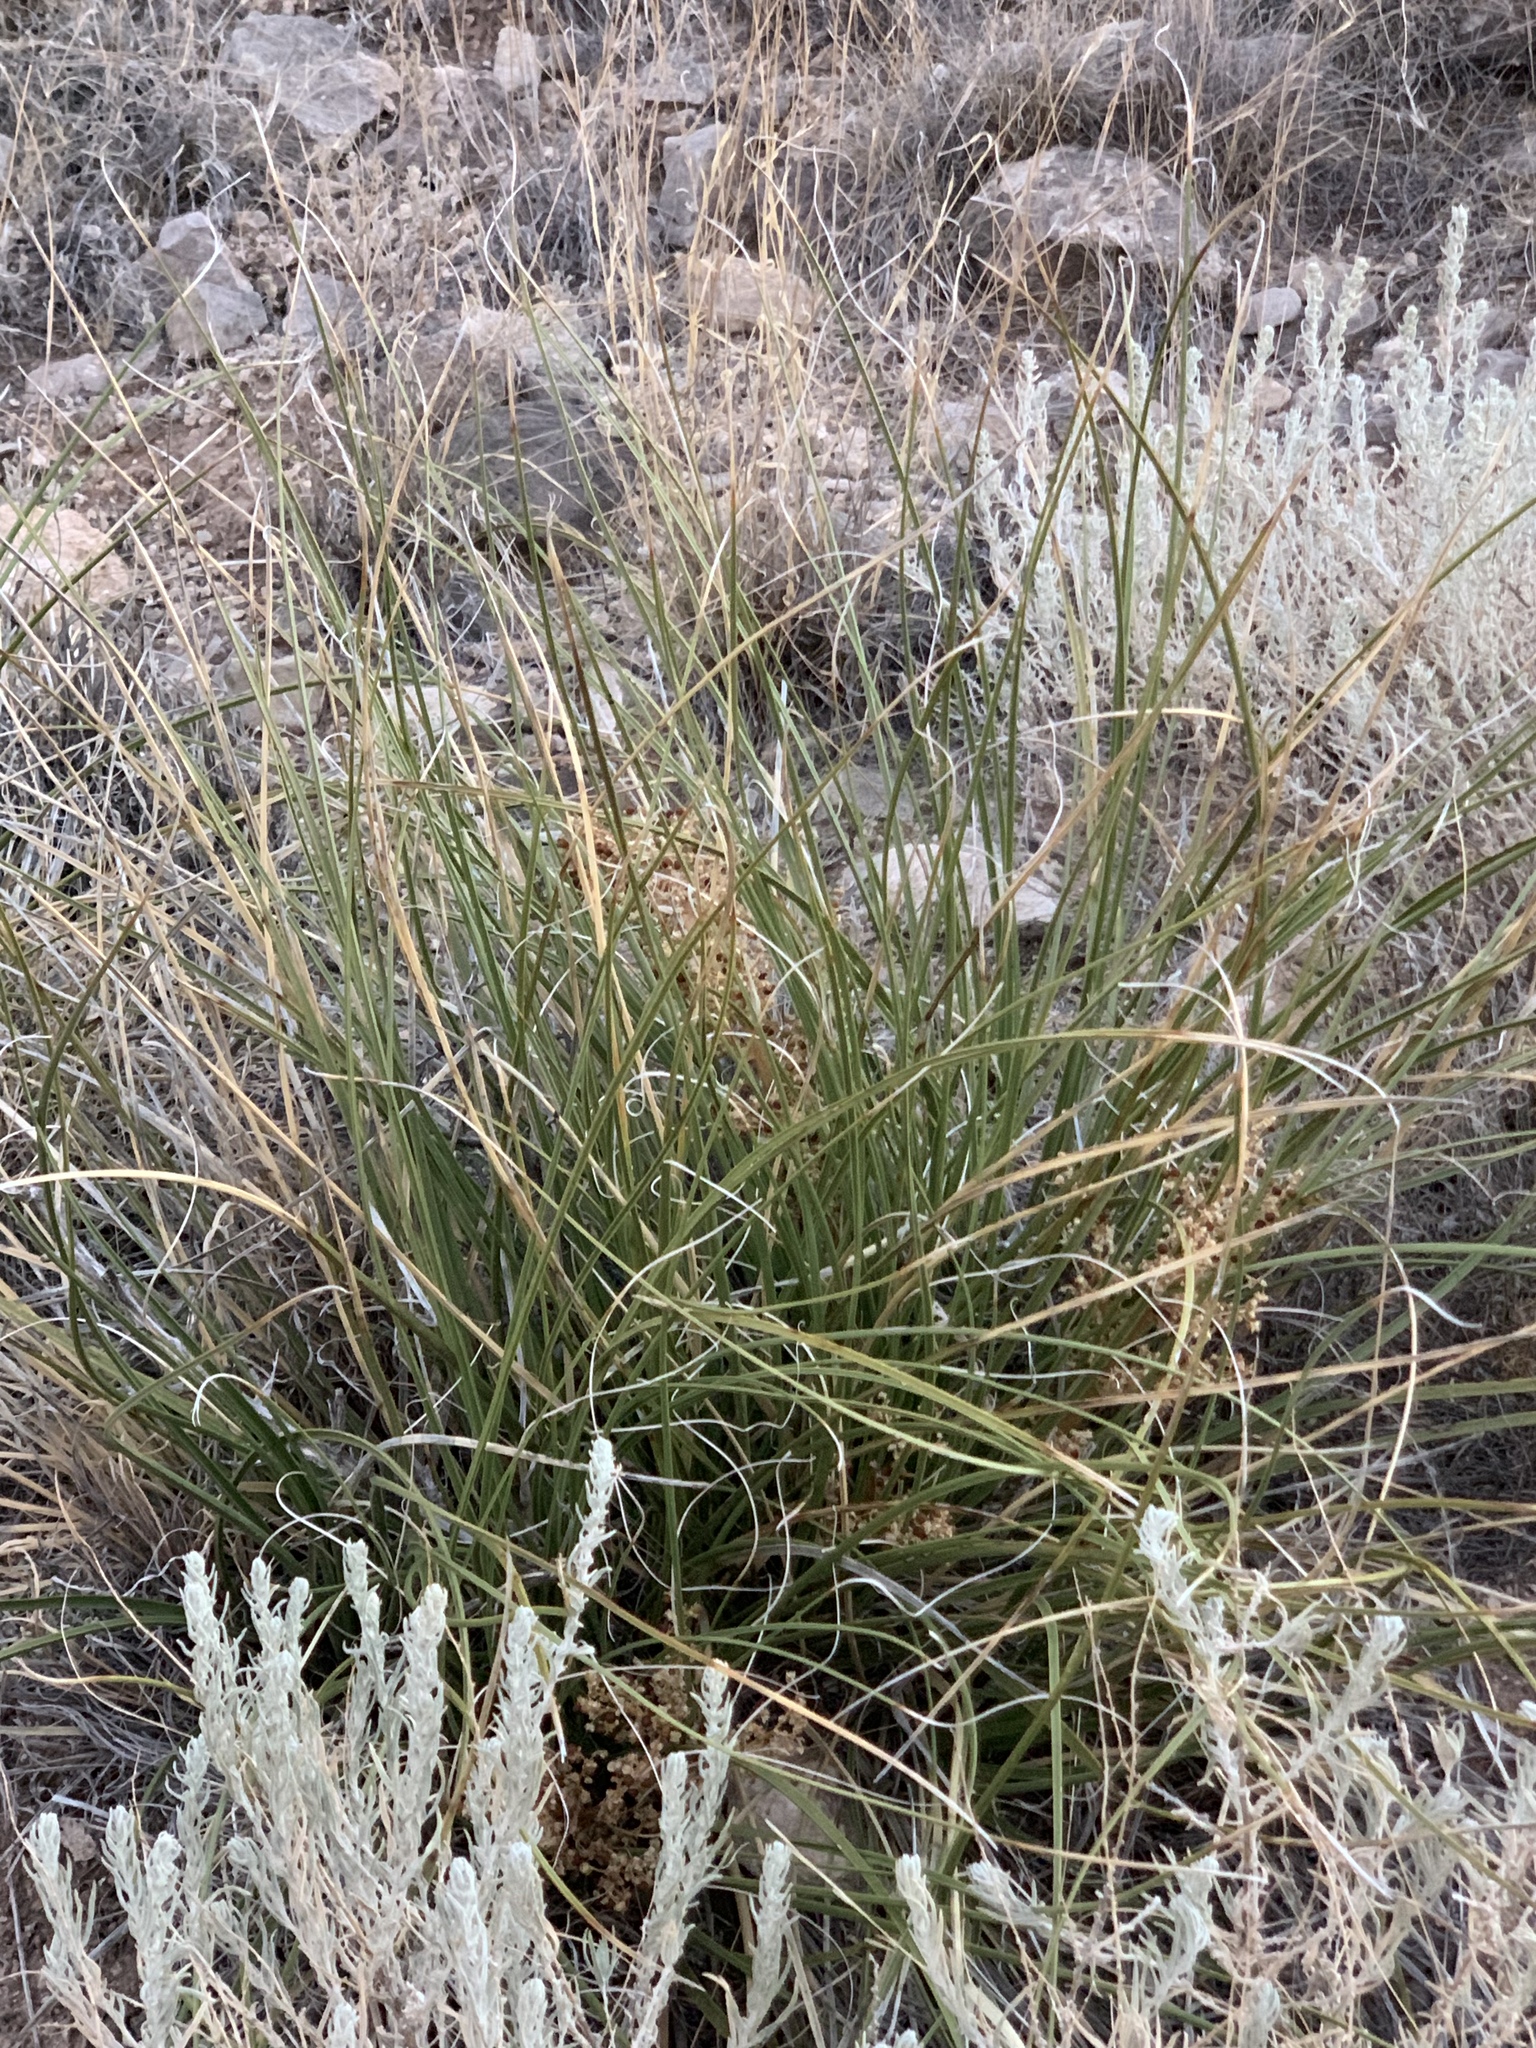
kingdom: Plantae
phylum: Tracheophyta
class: Liliopsida
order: Asparagales
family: Asparagaceae
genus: Nolina
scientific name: Nolina texana
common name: Texas sacahuiste
